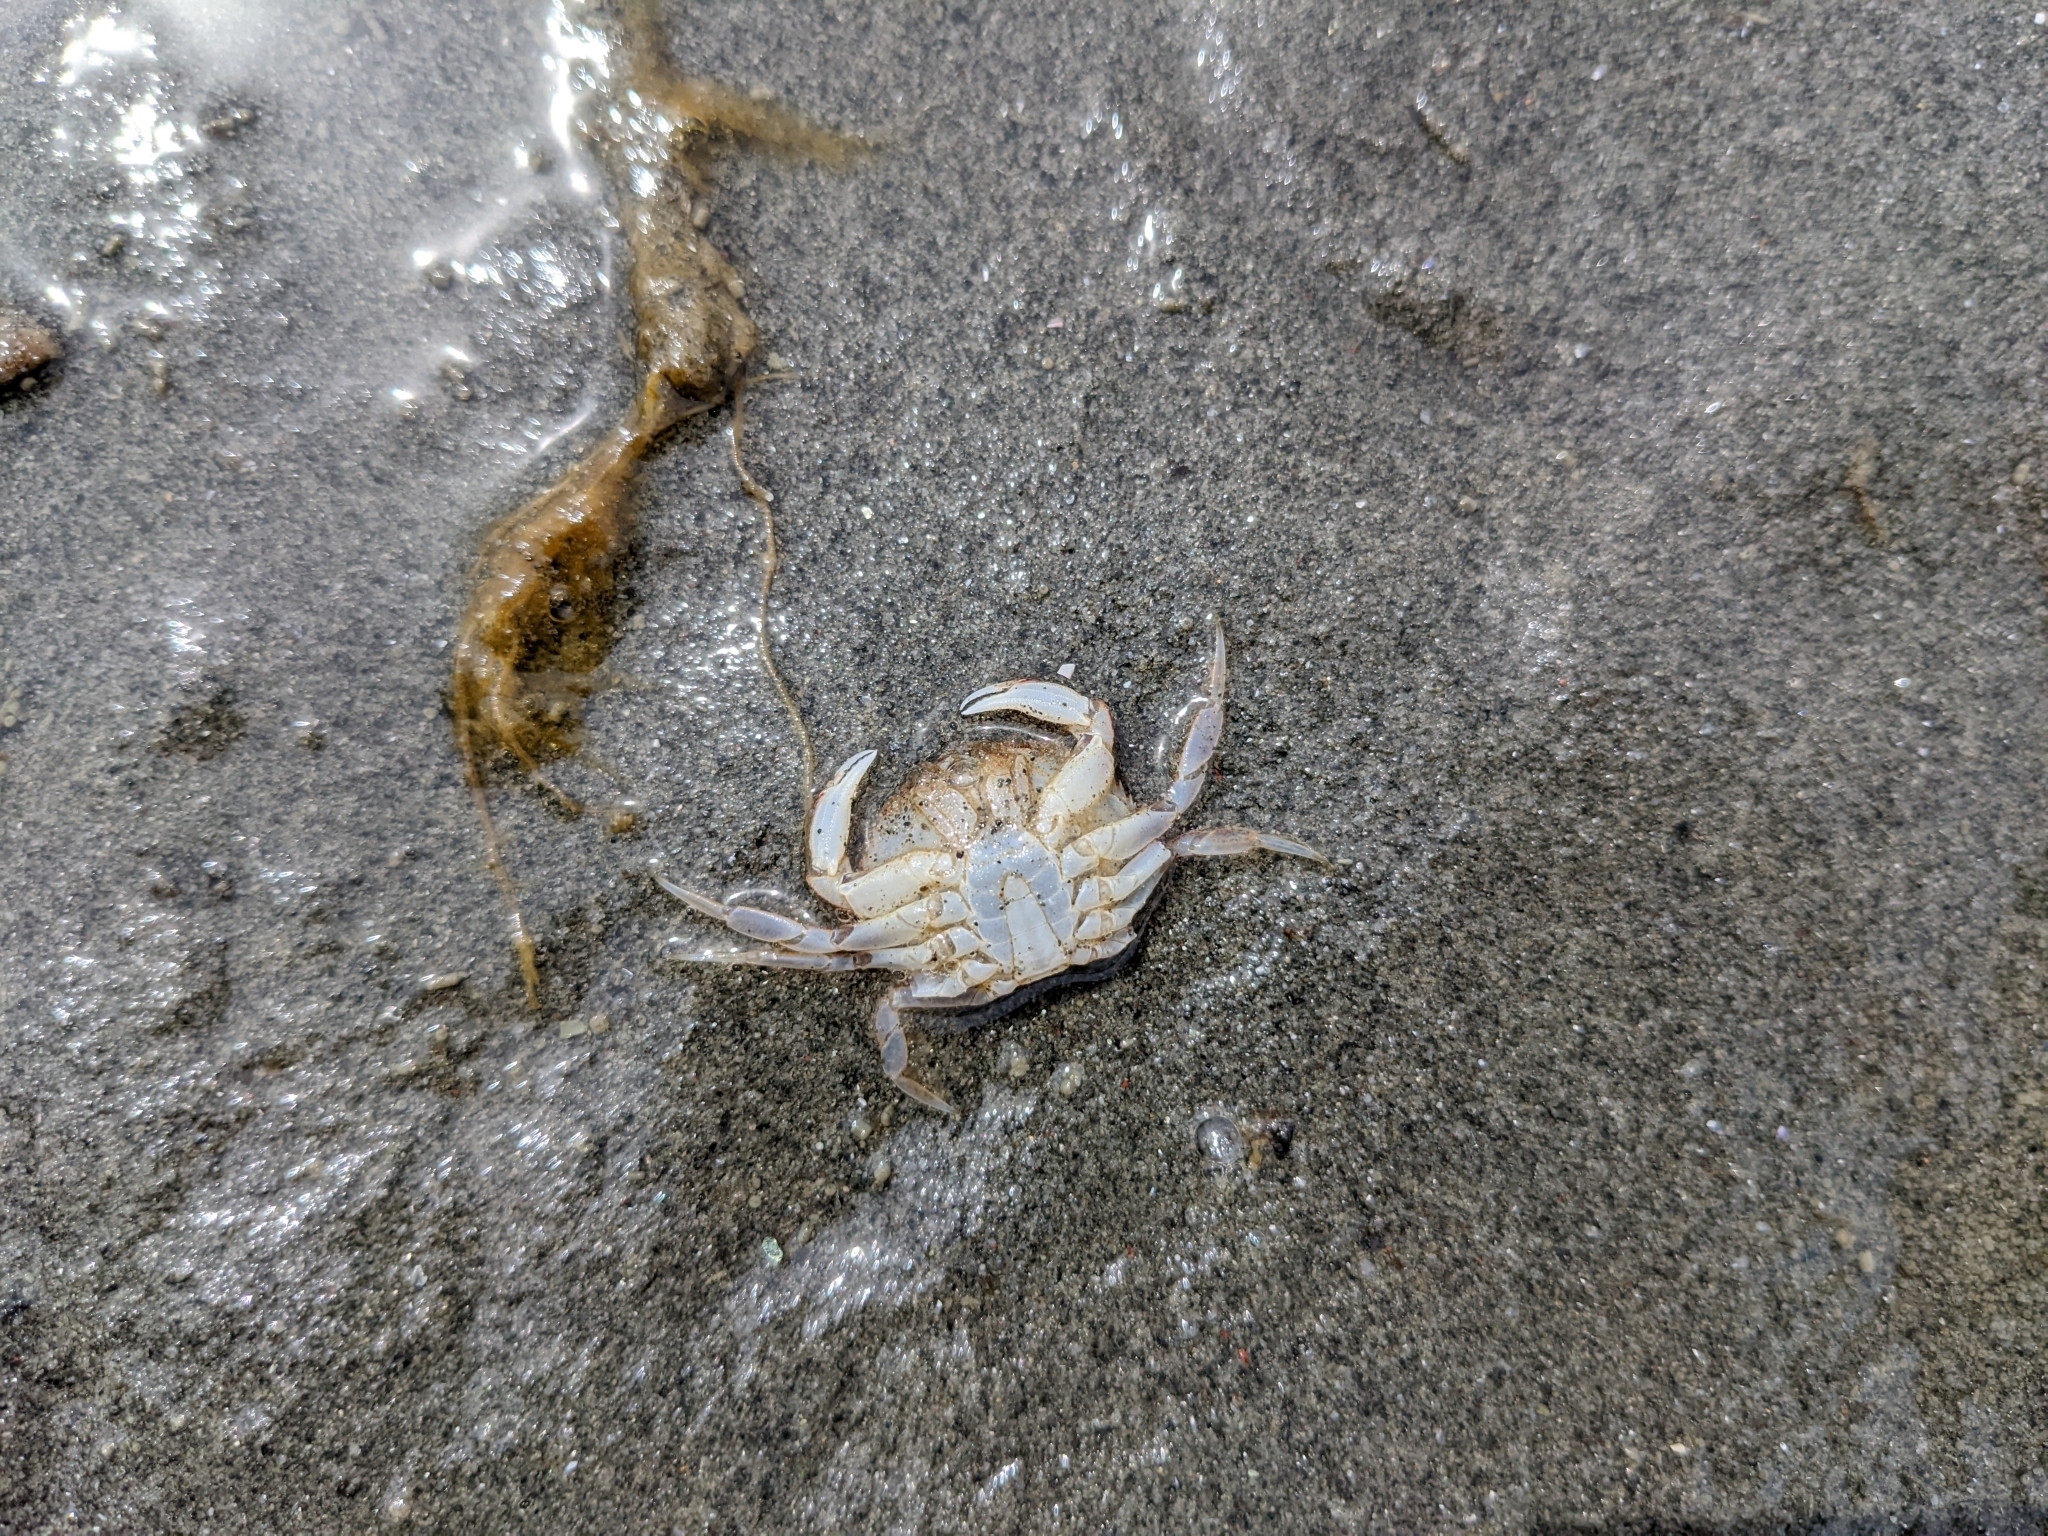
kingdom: Animalia
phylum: Arthropoda
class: Malacostraca
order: Decapoda
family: Cancridae
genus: Metacarcinus
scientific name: Metacarcinus magister
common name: Californian crab
